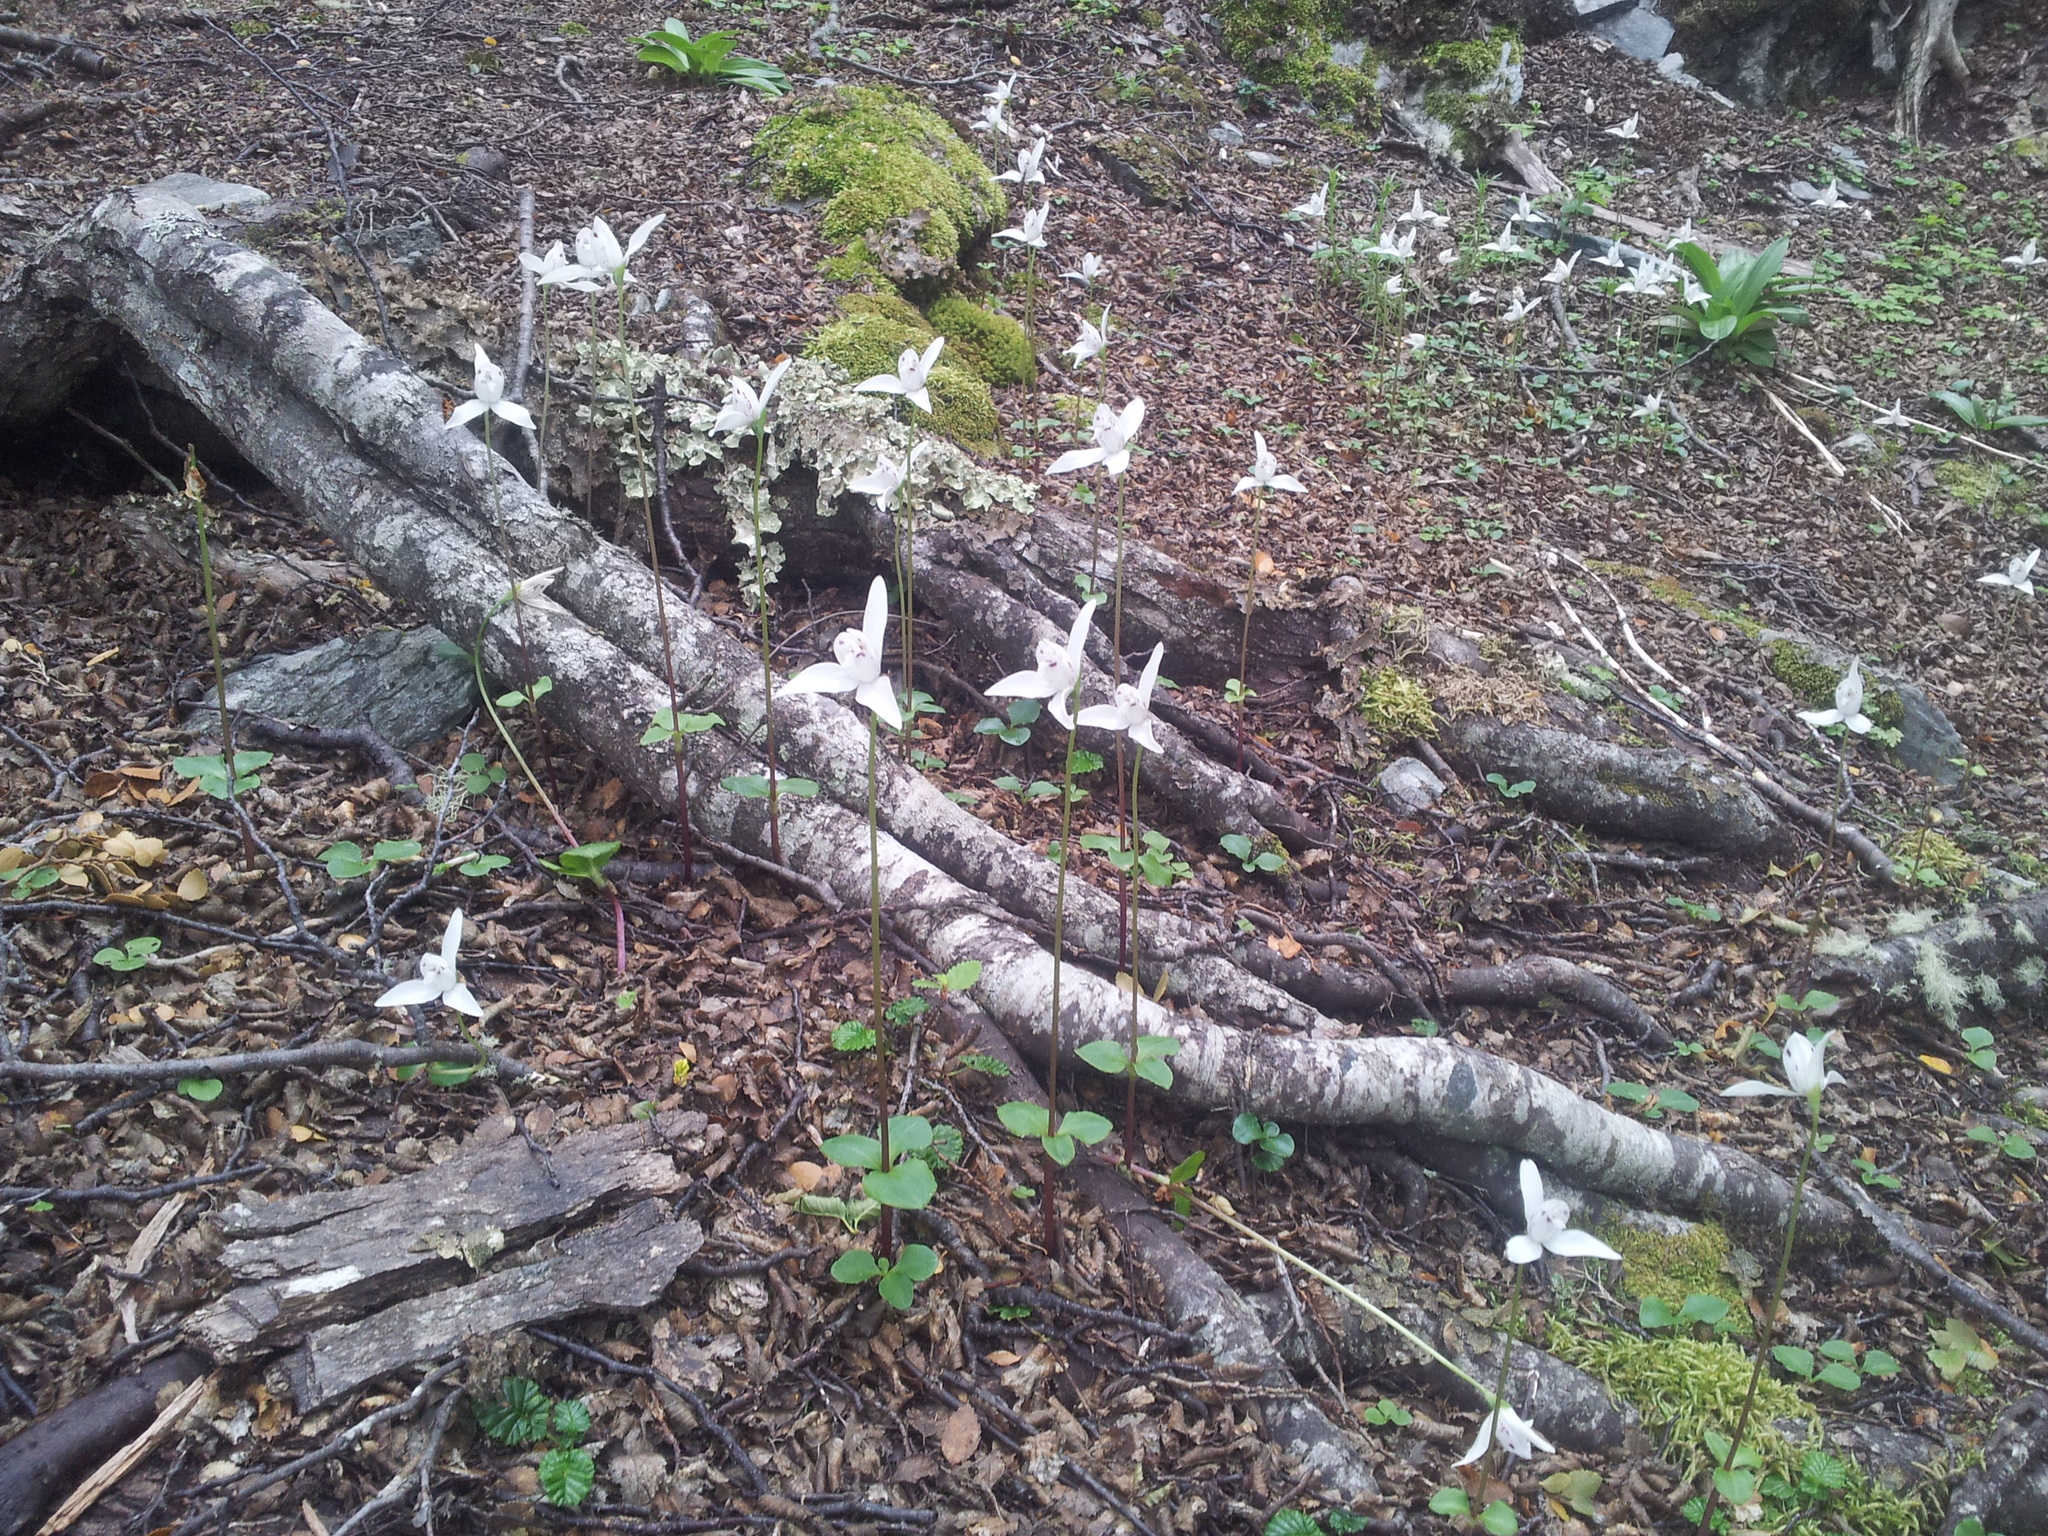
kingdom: Plantae
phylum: Tracheophyta
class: Liliopsida
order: Asparagales
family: Orchidaceae
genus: Codonorchis
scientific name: Codonorchis lessonii
